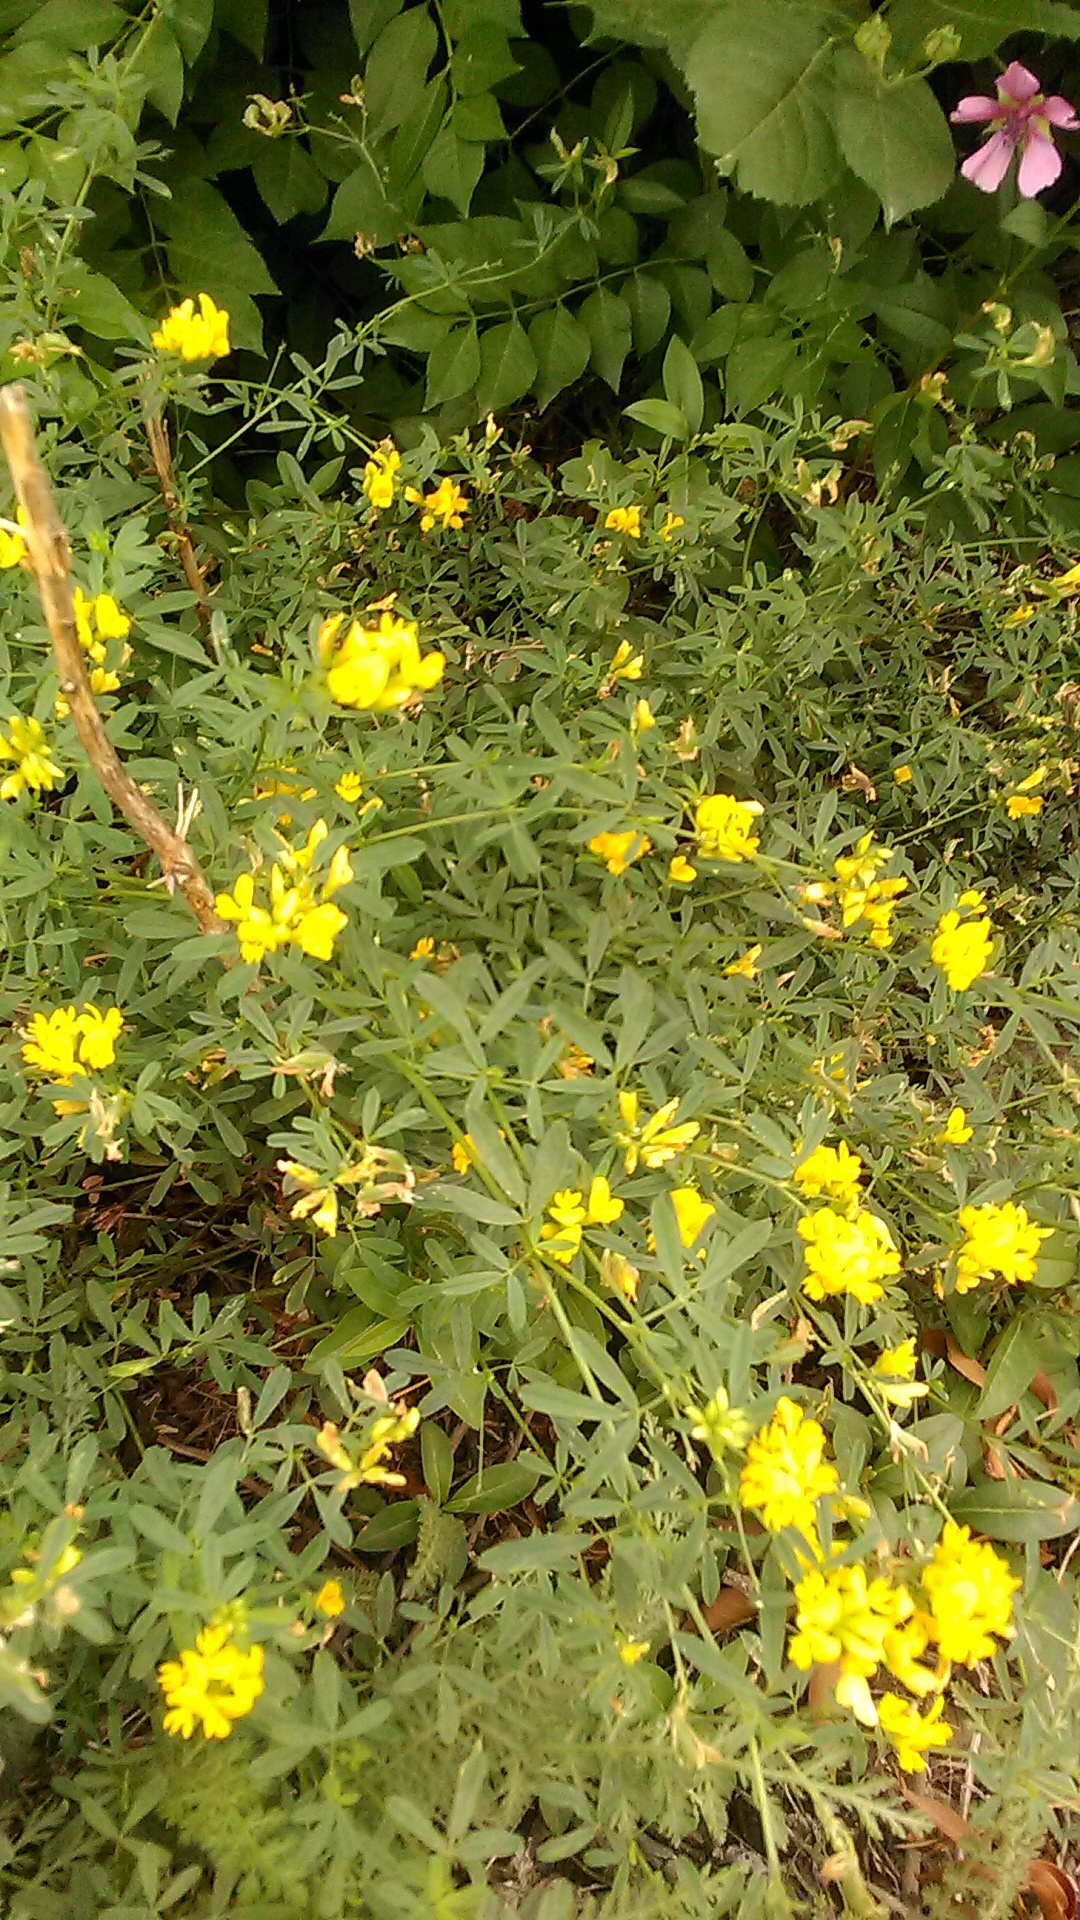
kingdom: Plantae
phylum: Tracheophyta
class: Magnoliopsida
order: Fabales
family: Fabaceae
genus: Medicago
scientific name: Medicago falcata
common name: Sickle medick
